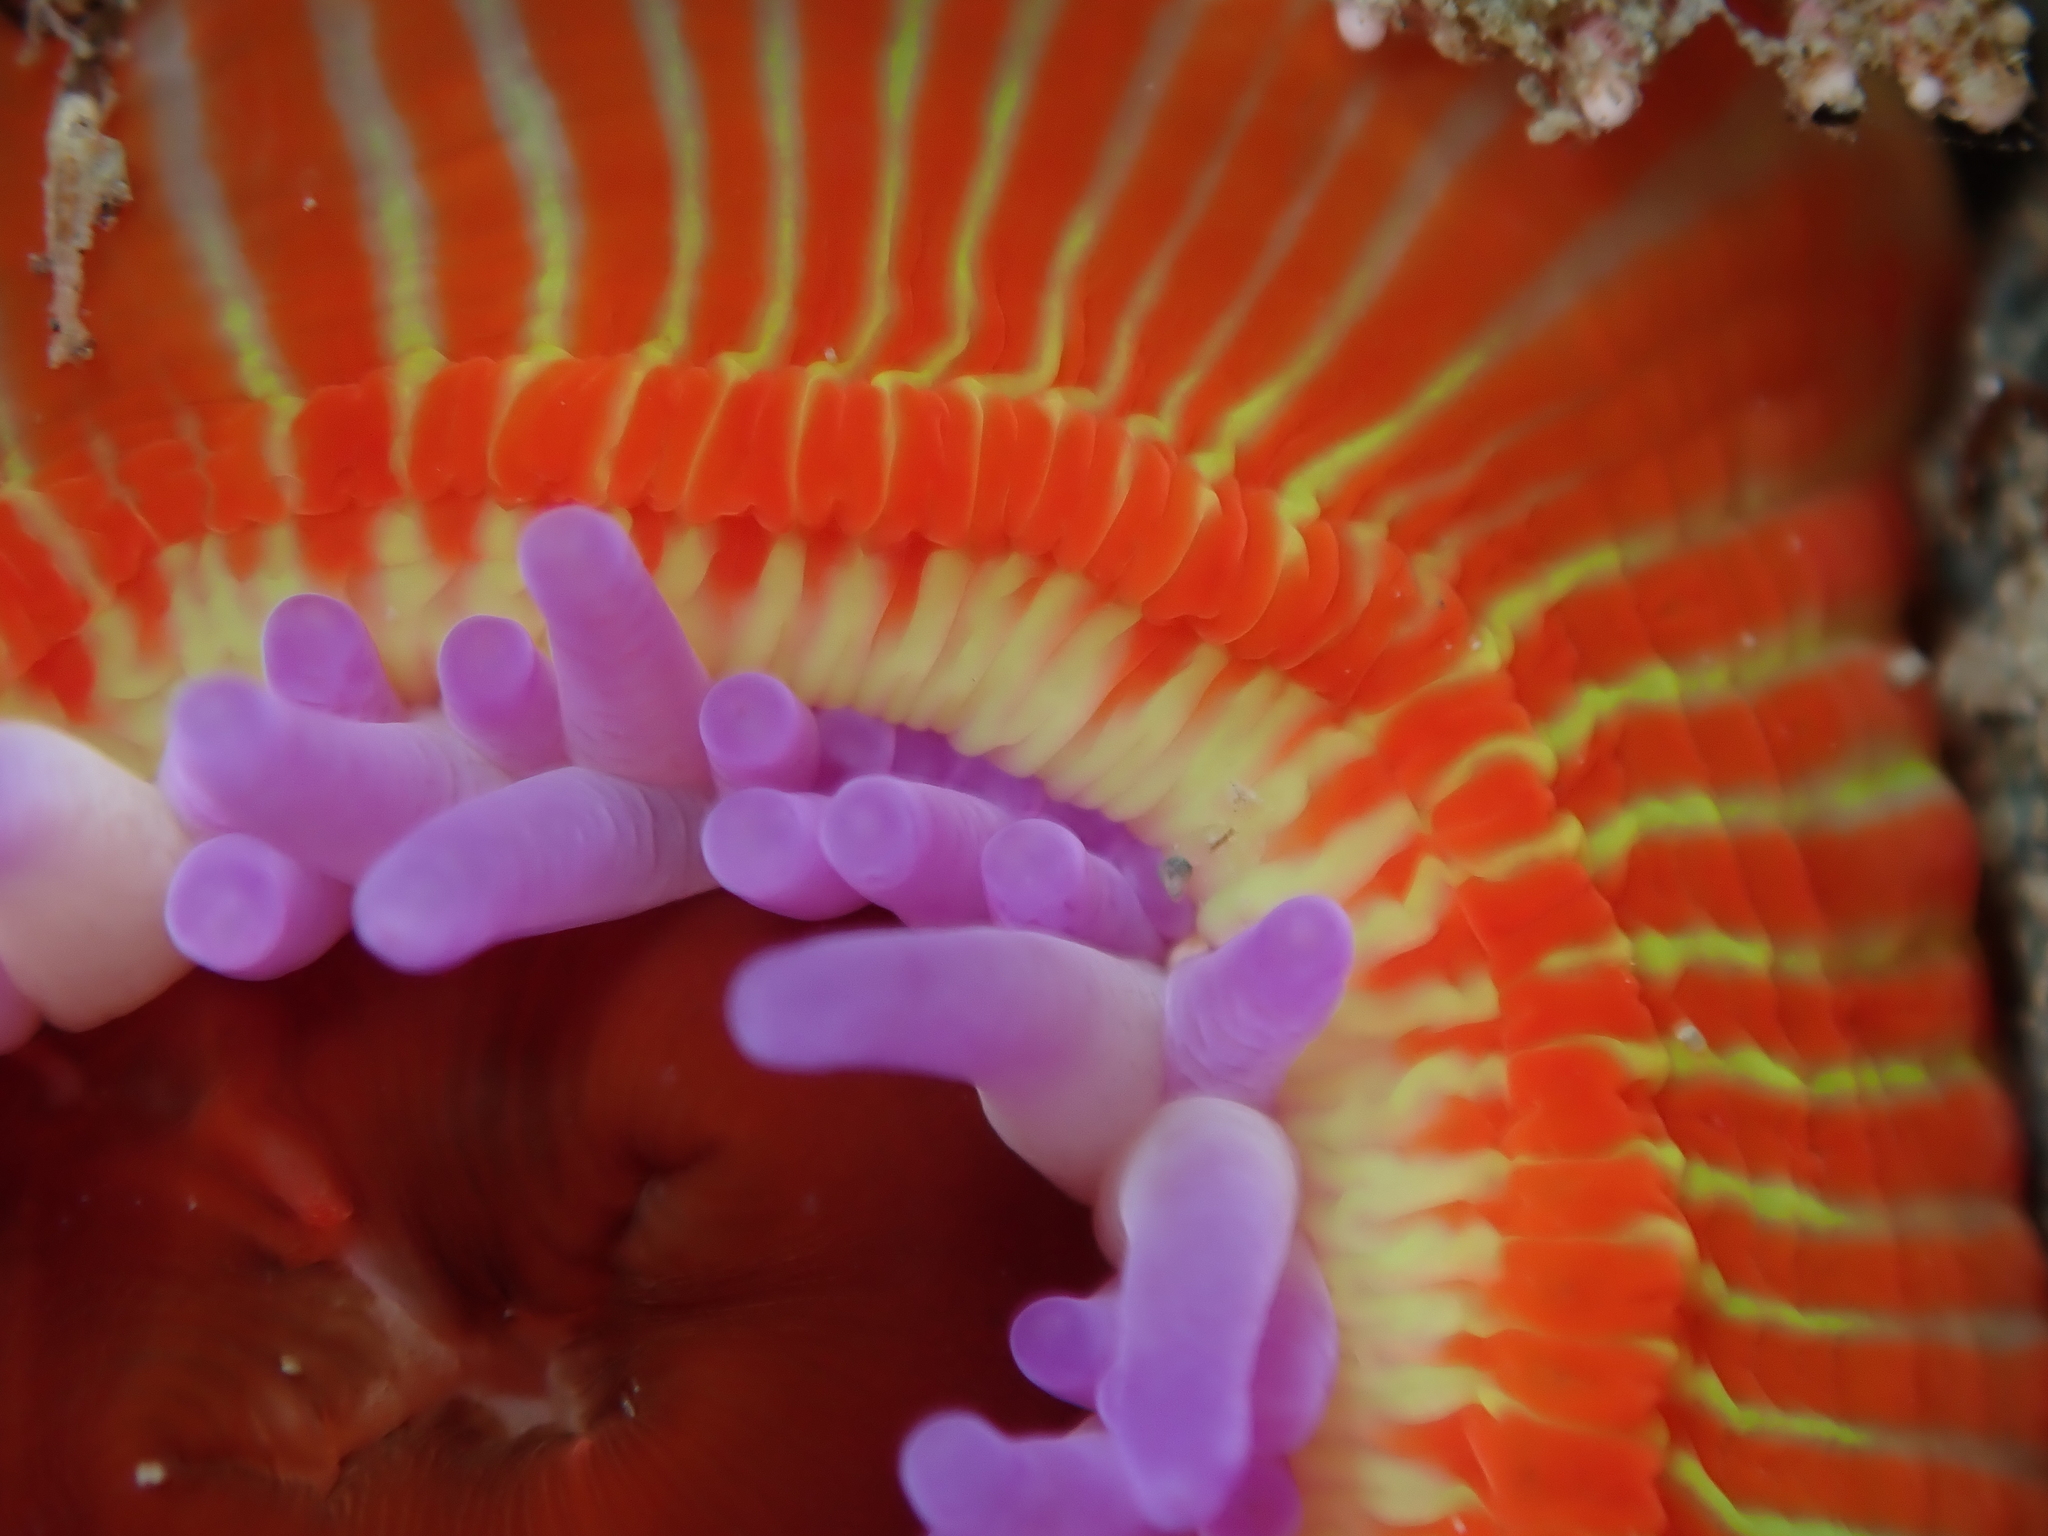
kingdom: Animalia
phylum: Cnidaria
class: Anthozoa
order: Actiniaria
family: Actiniidae
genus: Epiactis
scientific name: Epiactis thompsoni
